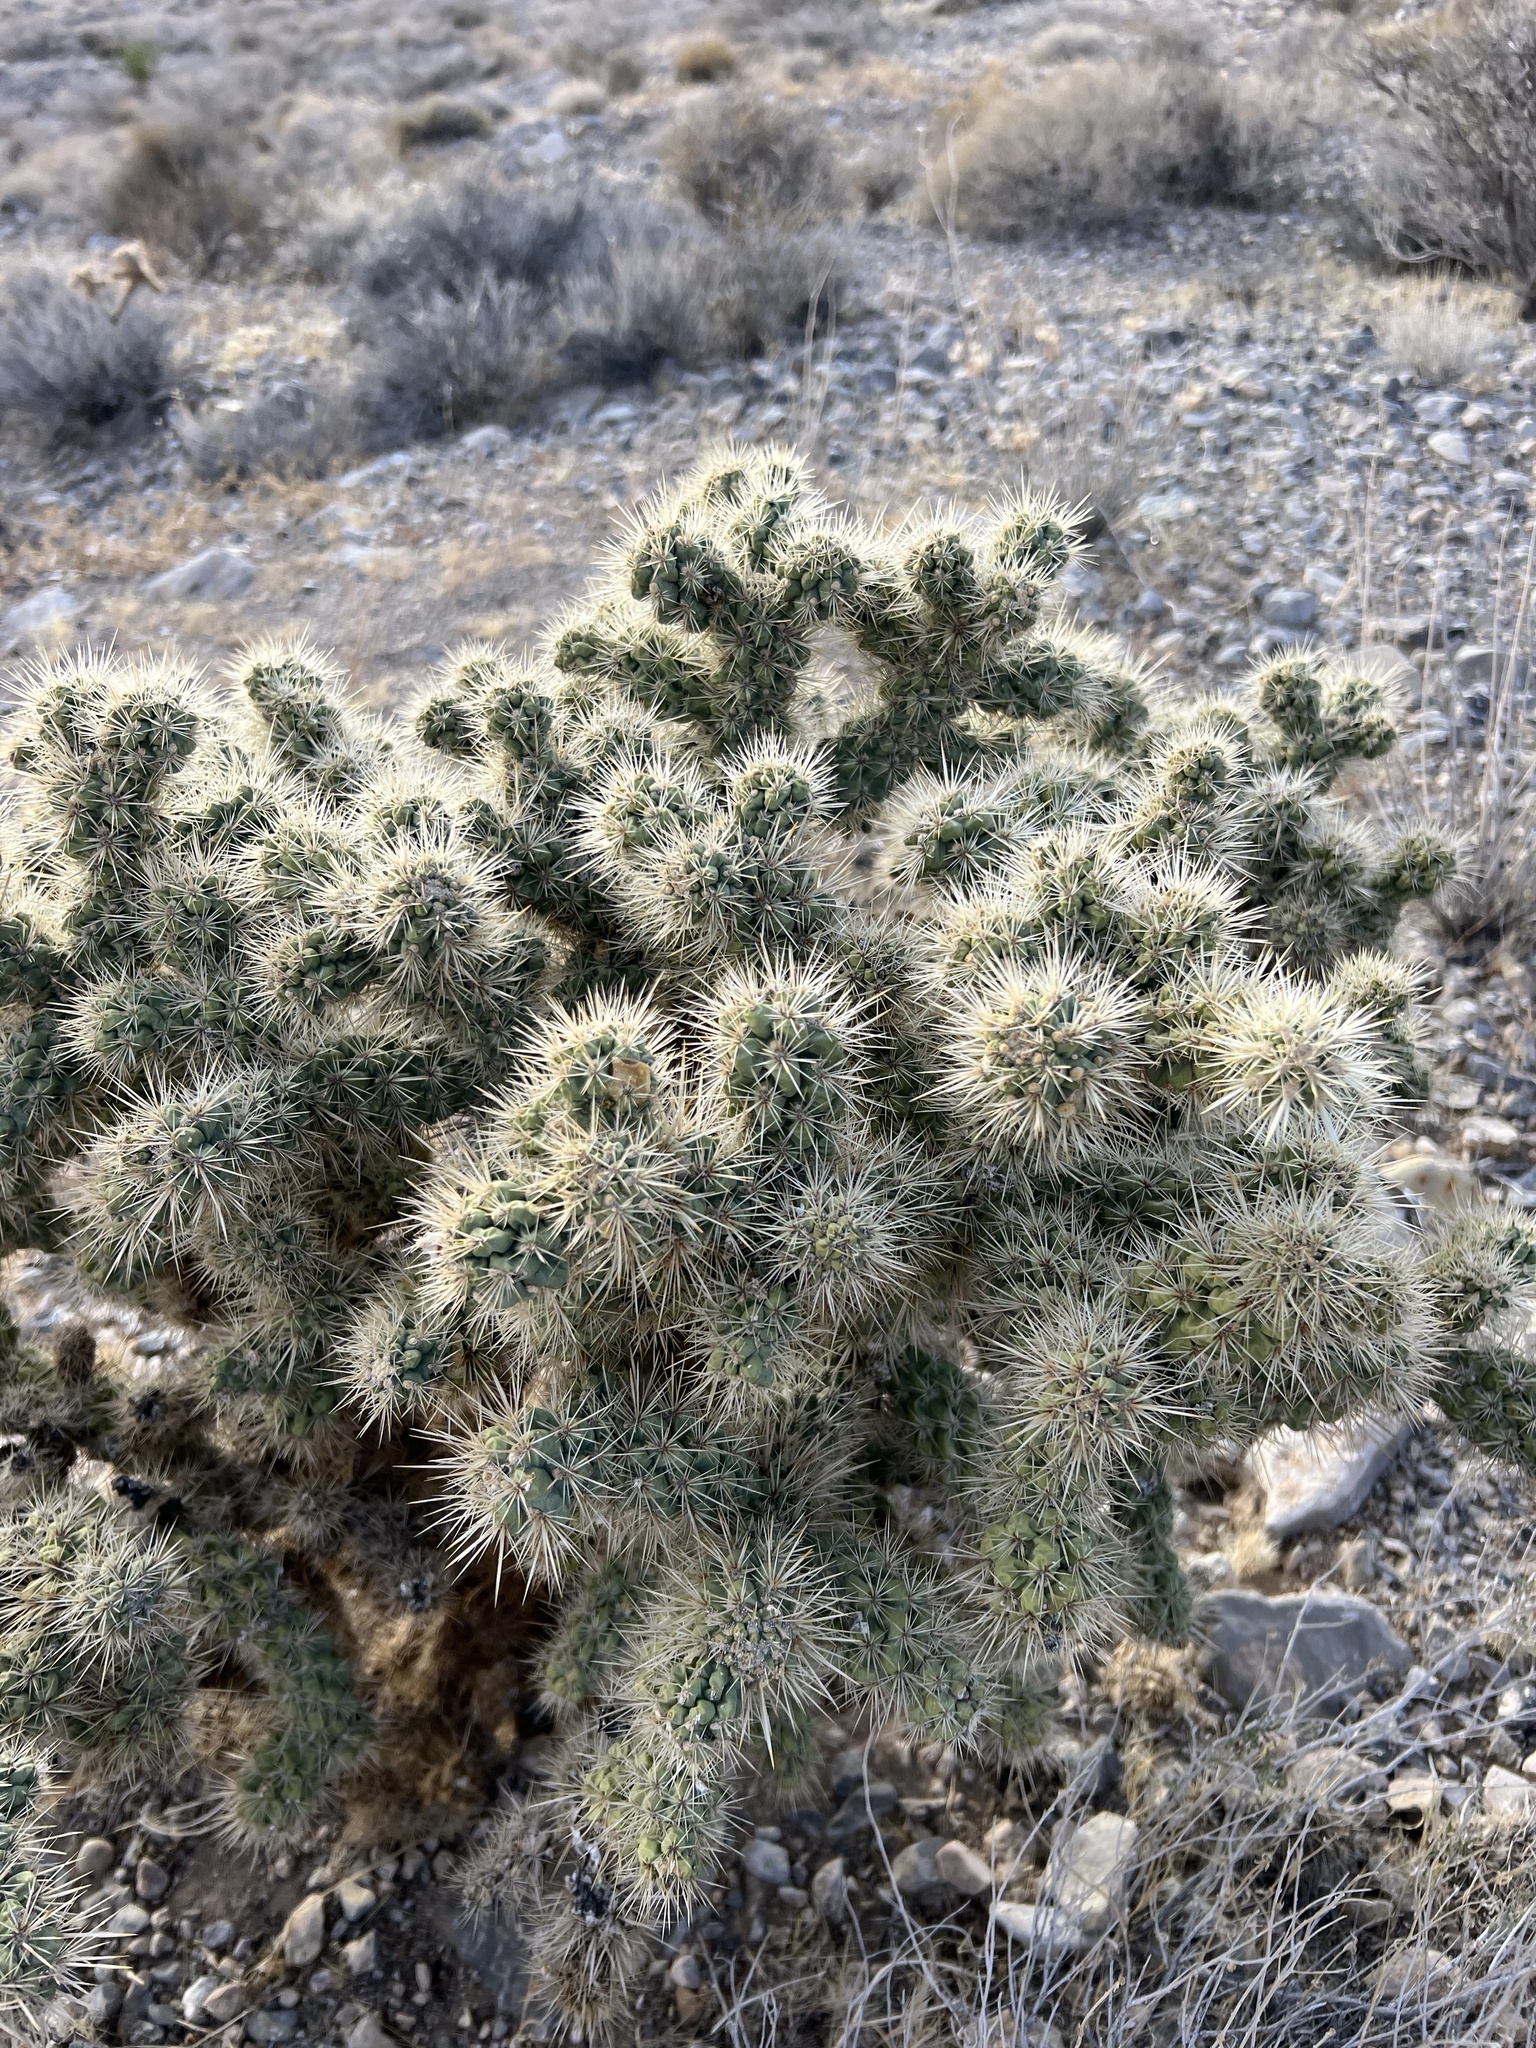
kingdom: Plantae
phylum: Tracheophyta
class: Magnoliopsida
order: Caryophyllales
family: Cactaceae
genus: Cylindropuntia
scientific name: Cylindropuntia echinocarpa
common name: Ground cholla
